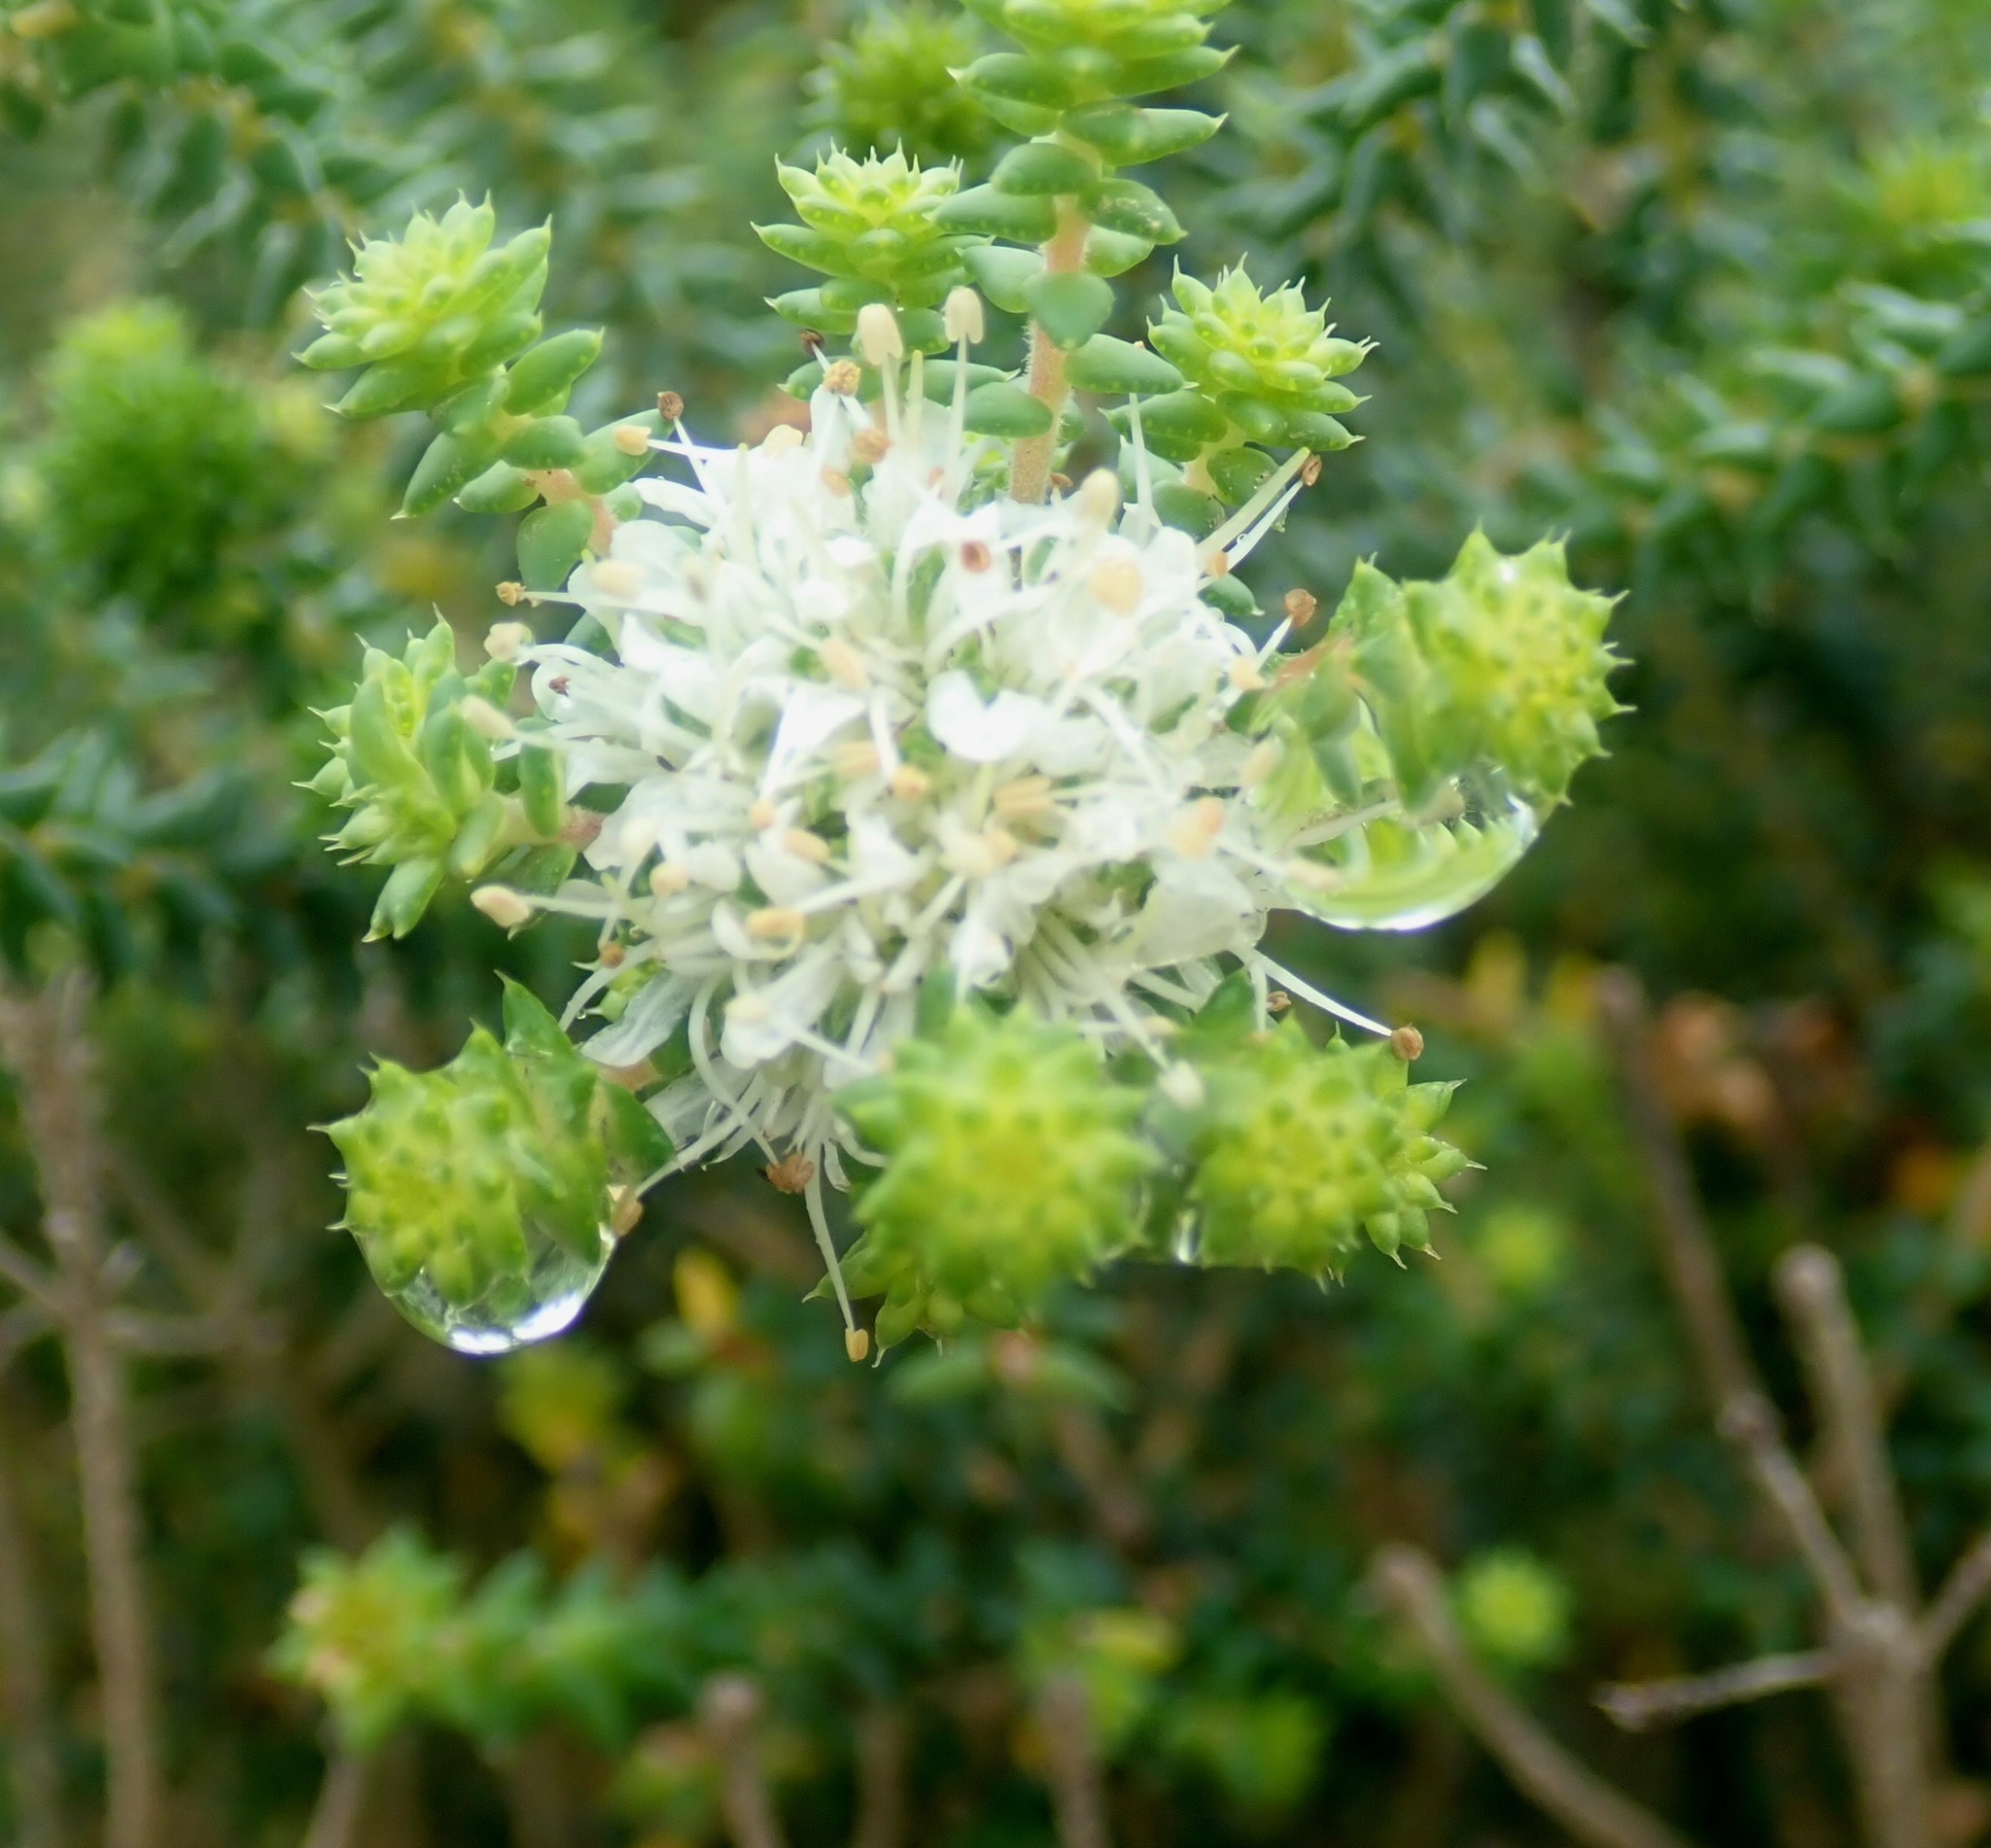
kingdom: Plantae
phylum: Tracheophyta
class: Magnoliopsida
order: Sapindales
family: Rutaceae
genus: Agathosma
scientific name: Agathosma apiculata
